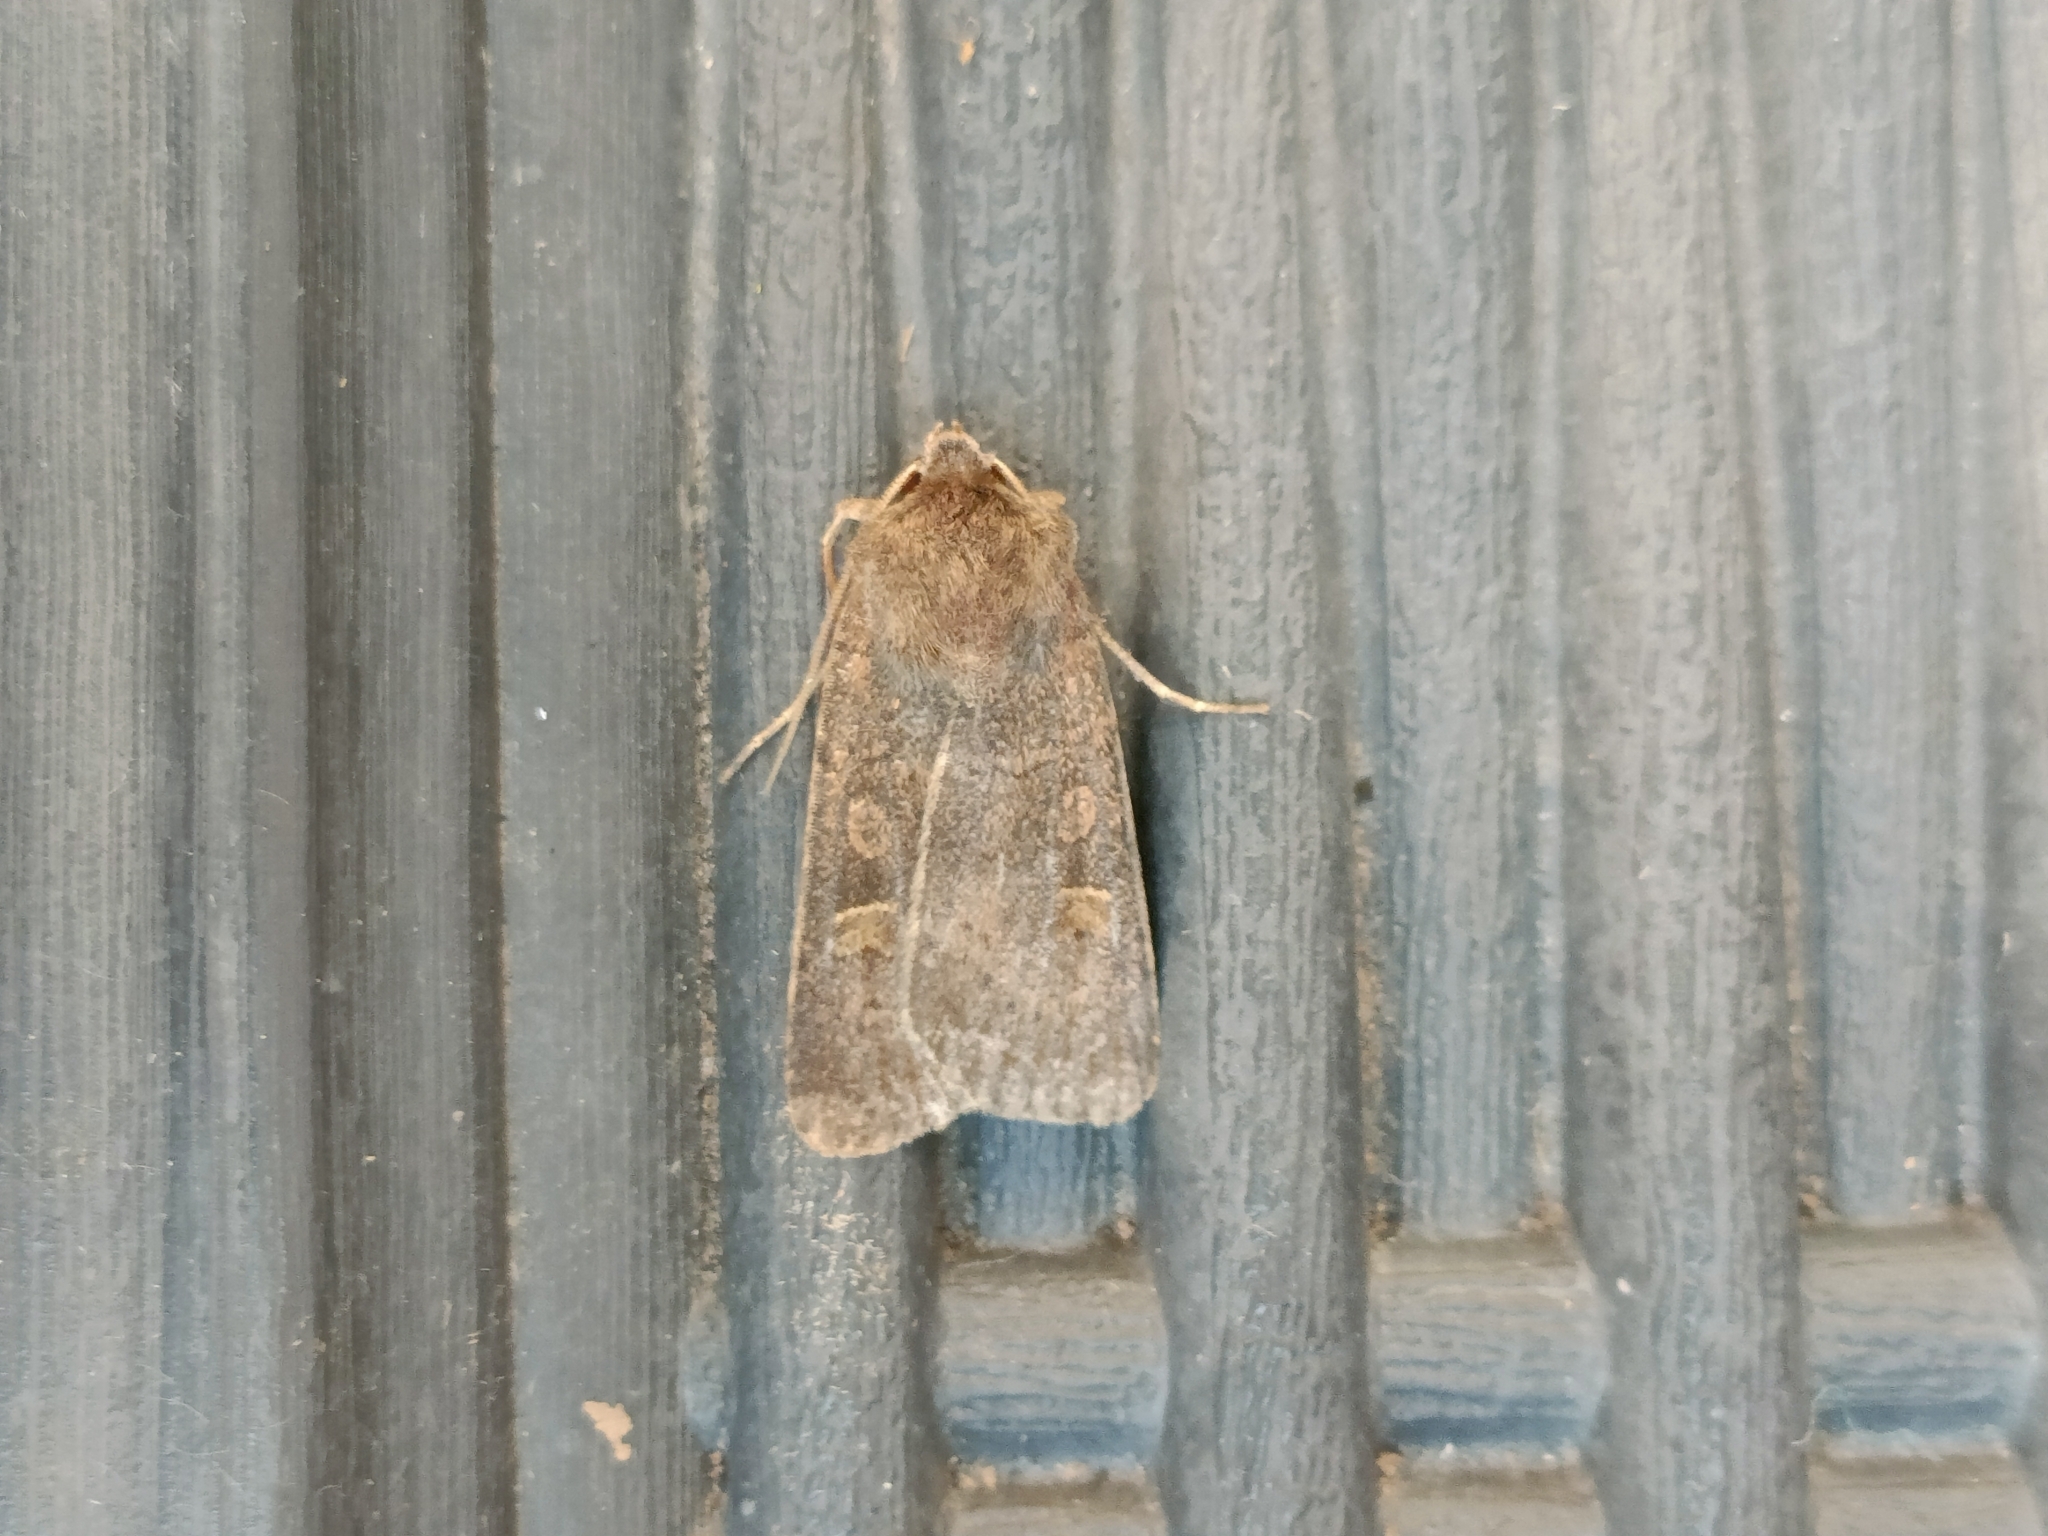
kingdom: Animalia
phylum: Arthropoda
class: Insecta
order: Lepidoptera
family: Noctuidae
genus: Xestia
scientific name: Xestia xanthographa
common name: Square-spot rustic
